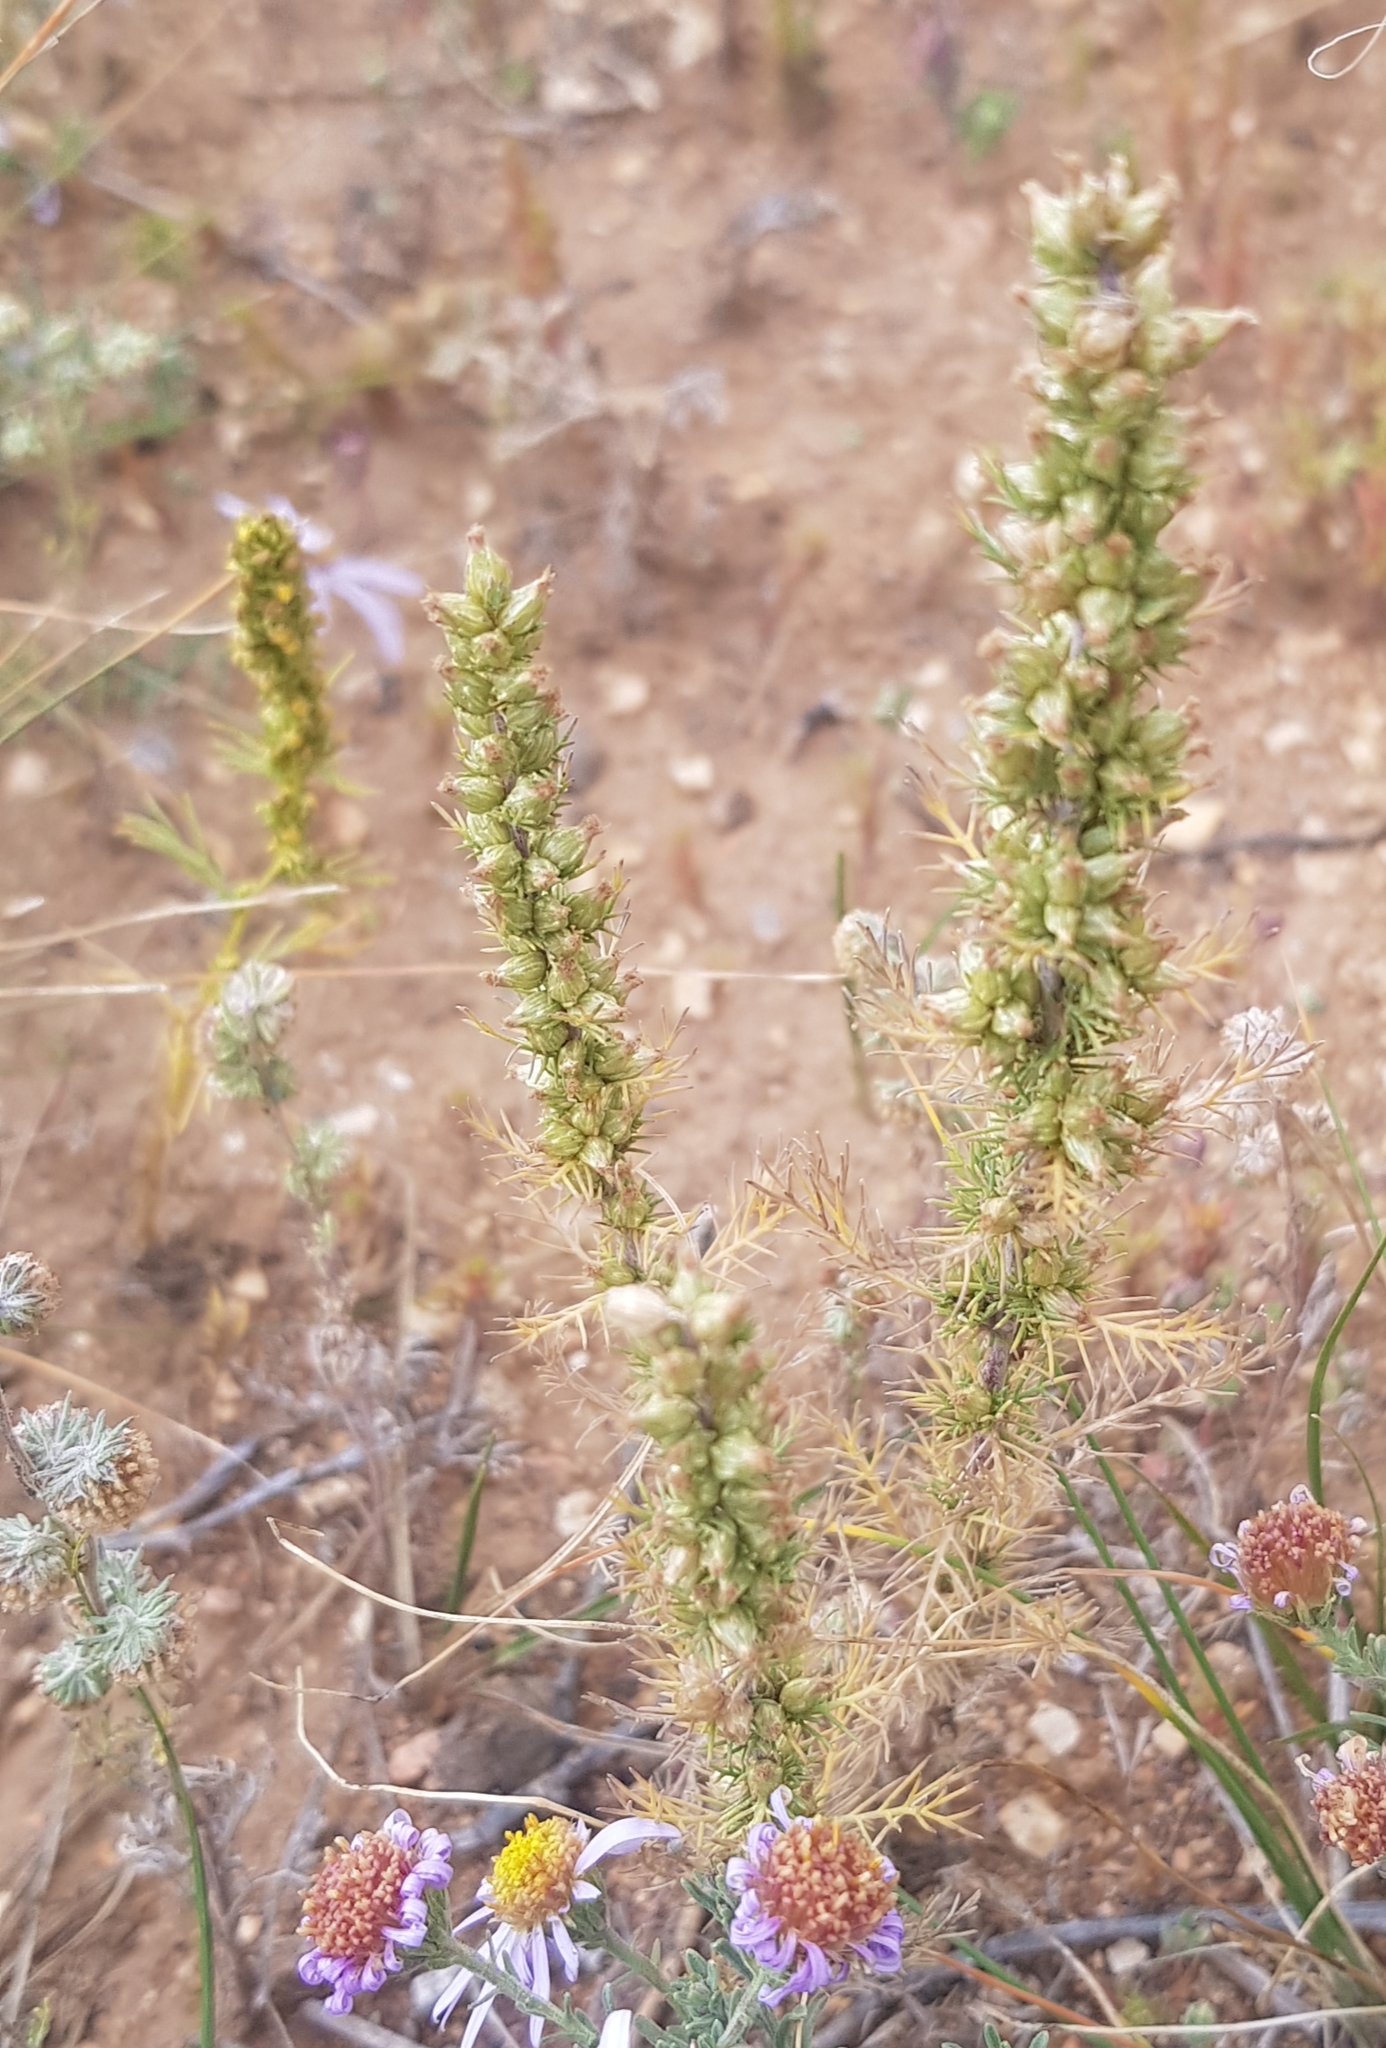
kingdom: Plantae
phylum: Tracheophyta
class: Magnoliopsida
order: Asterales
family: Asteraceae
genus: Neopallasia
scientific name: Neopallasia pectinata
